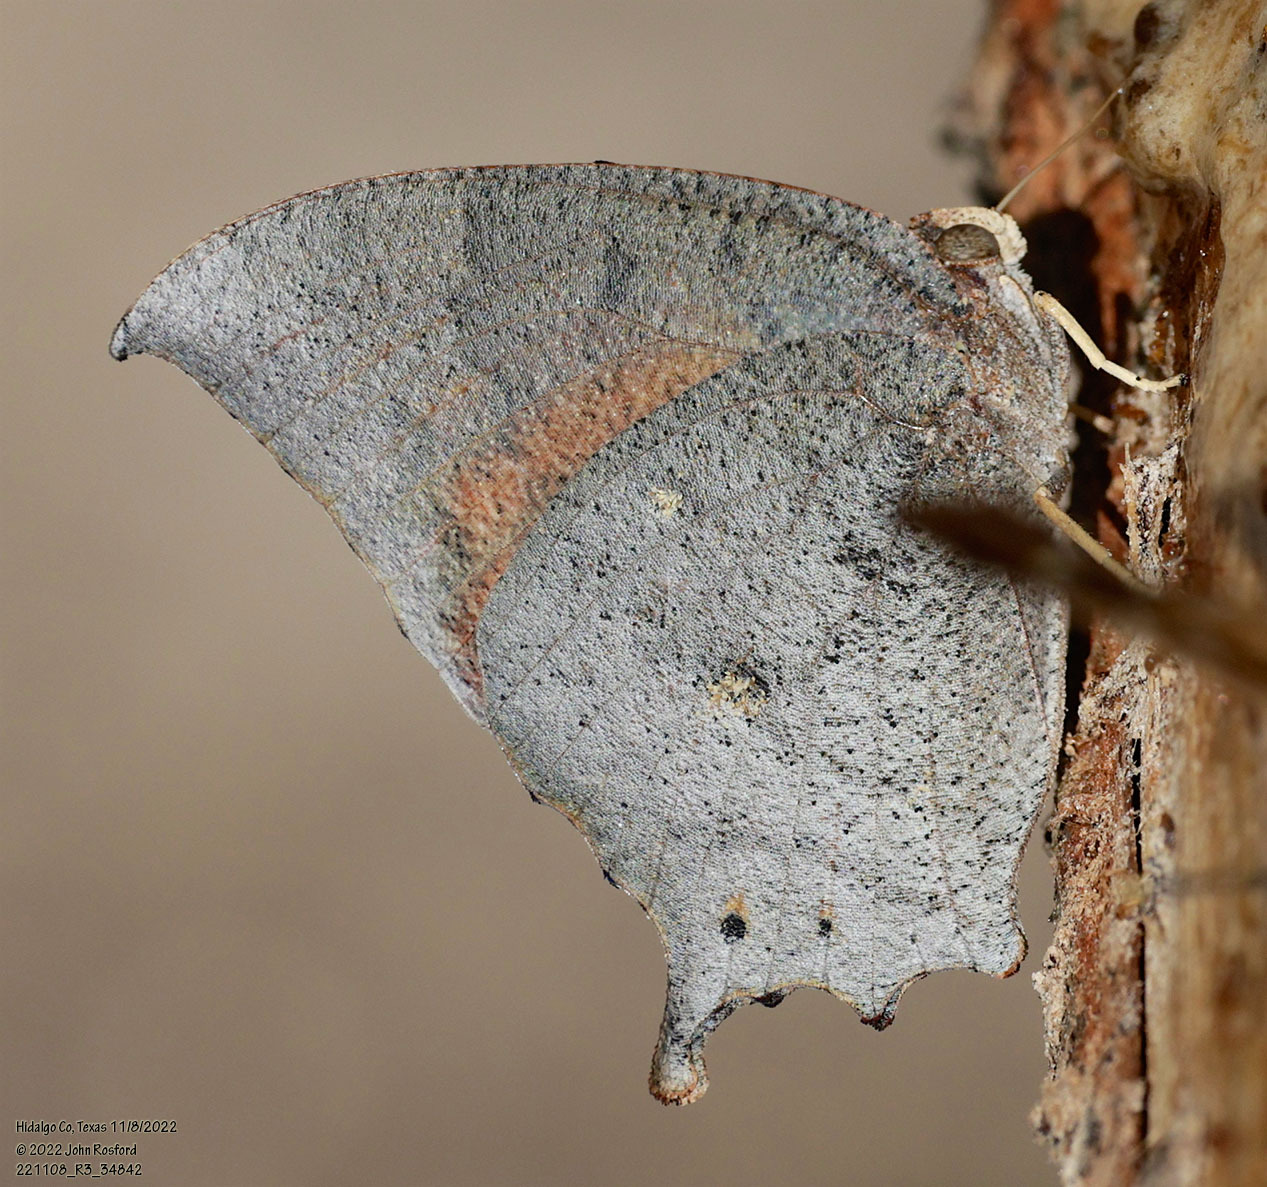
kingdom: Animalia
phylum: Arthropoda
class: Insecta
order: Lepidoptera
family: Nymphalidae
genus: Anaea
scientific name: Anaea aidea
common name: Tropical leafwing
